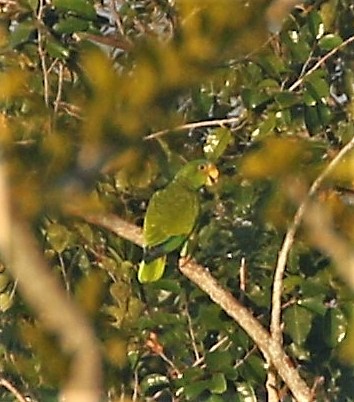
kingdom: Animalia
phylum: Chordata
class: Aves
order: Psittaciformes
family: Psittacidae
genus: Amazona
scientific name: Amazona xantholora
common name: Yucatan amazon
